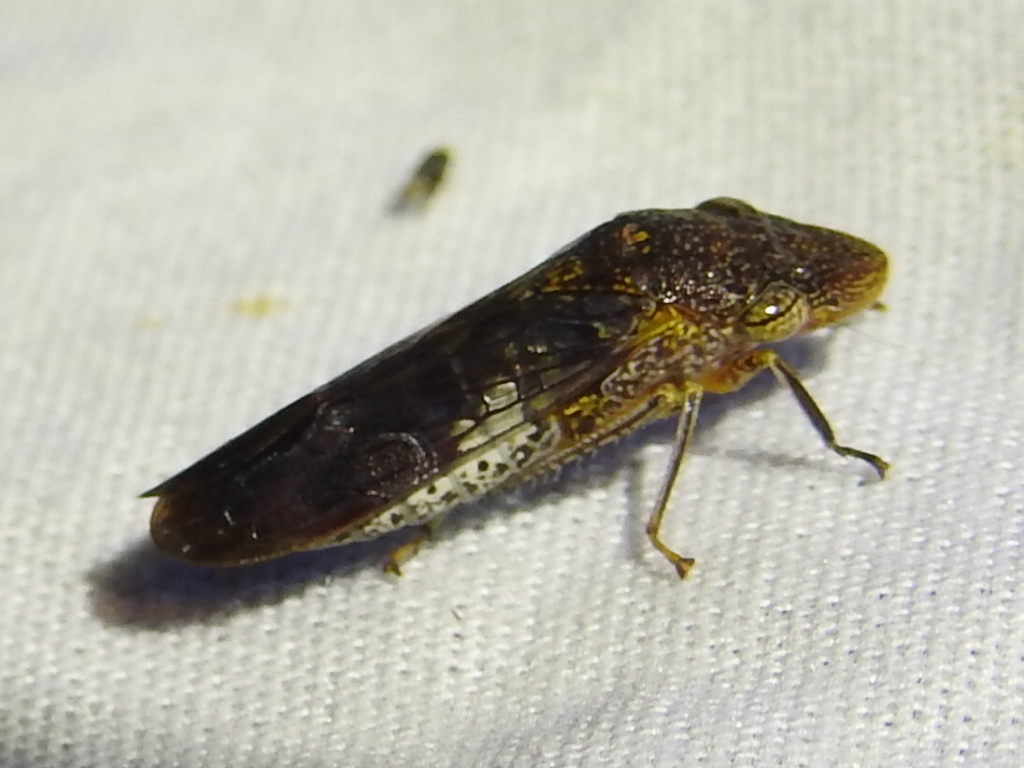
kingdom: Animalia
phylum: Arthropoda
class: Insecta
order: Hemiptera
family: Cicadellidae
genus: Homalodisca
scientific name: Homalodisca vitripennis
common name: Glassy-winged sharpshooter
